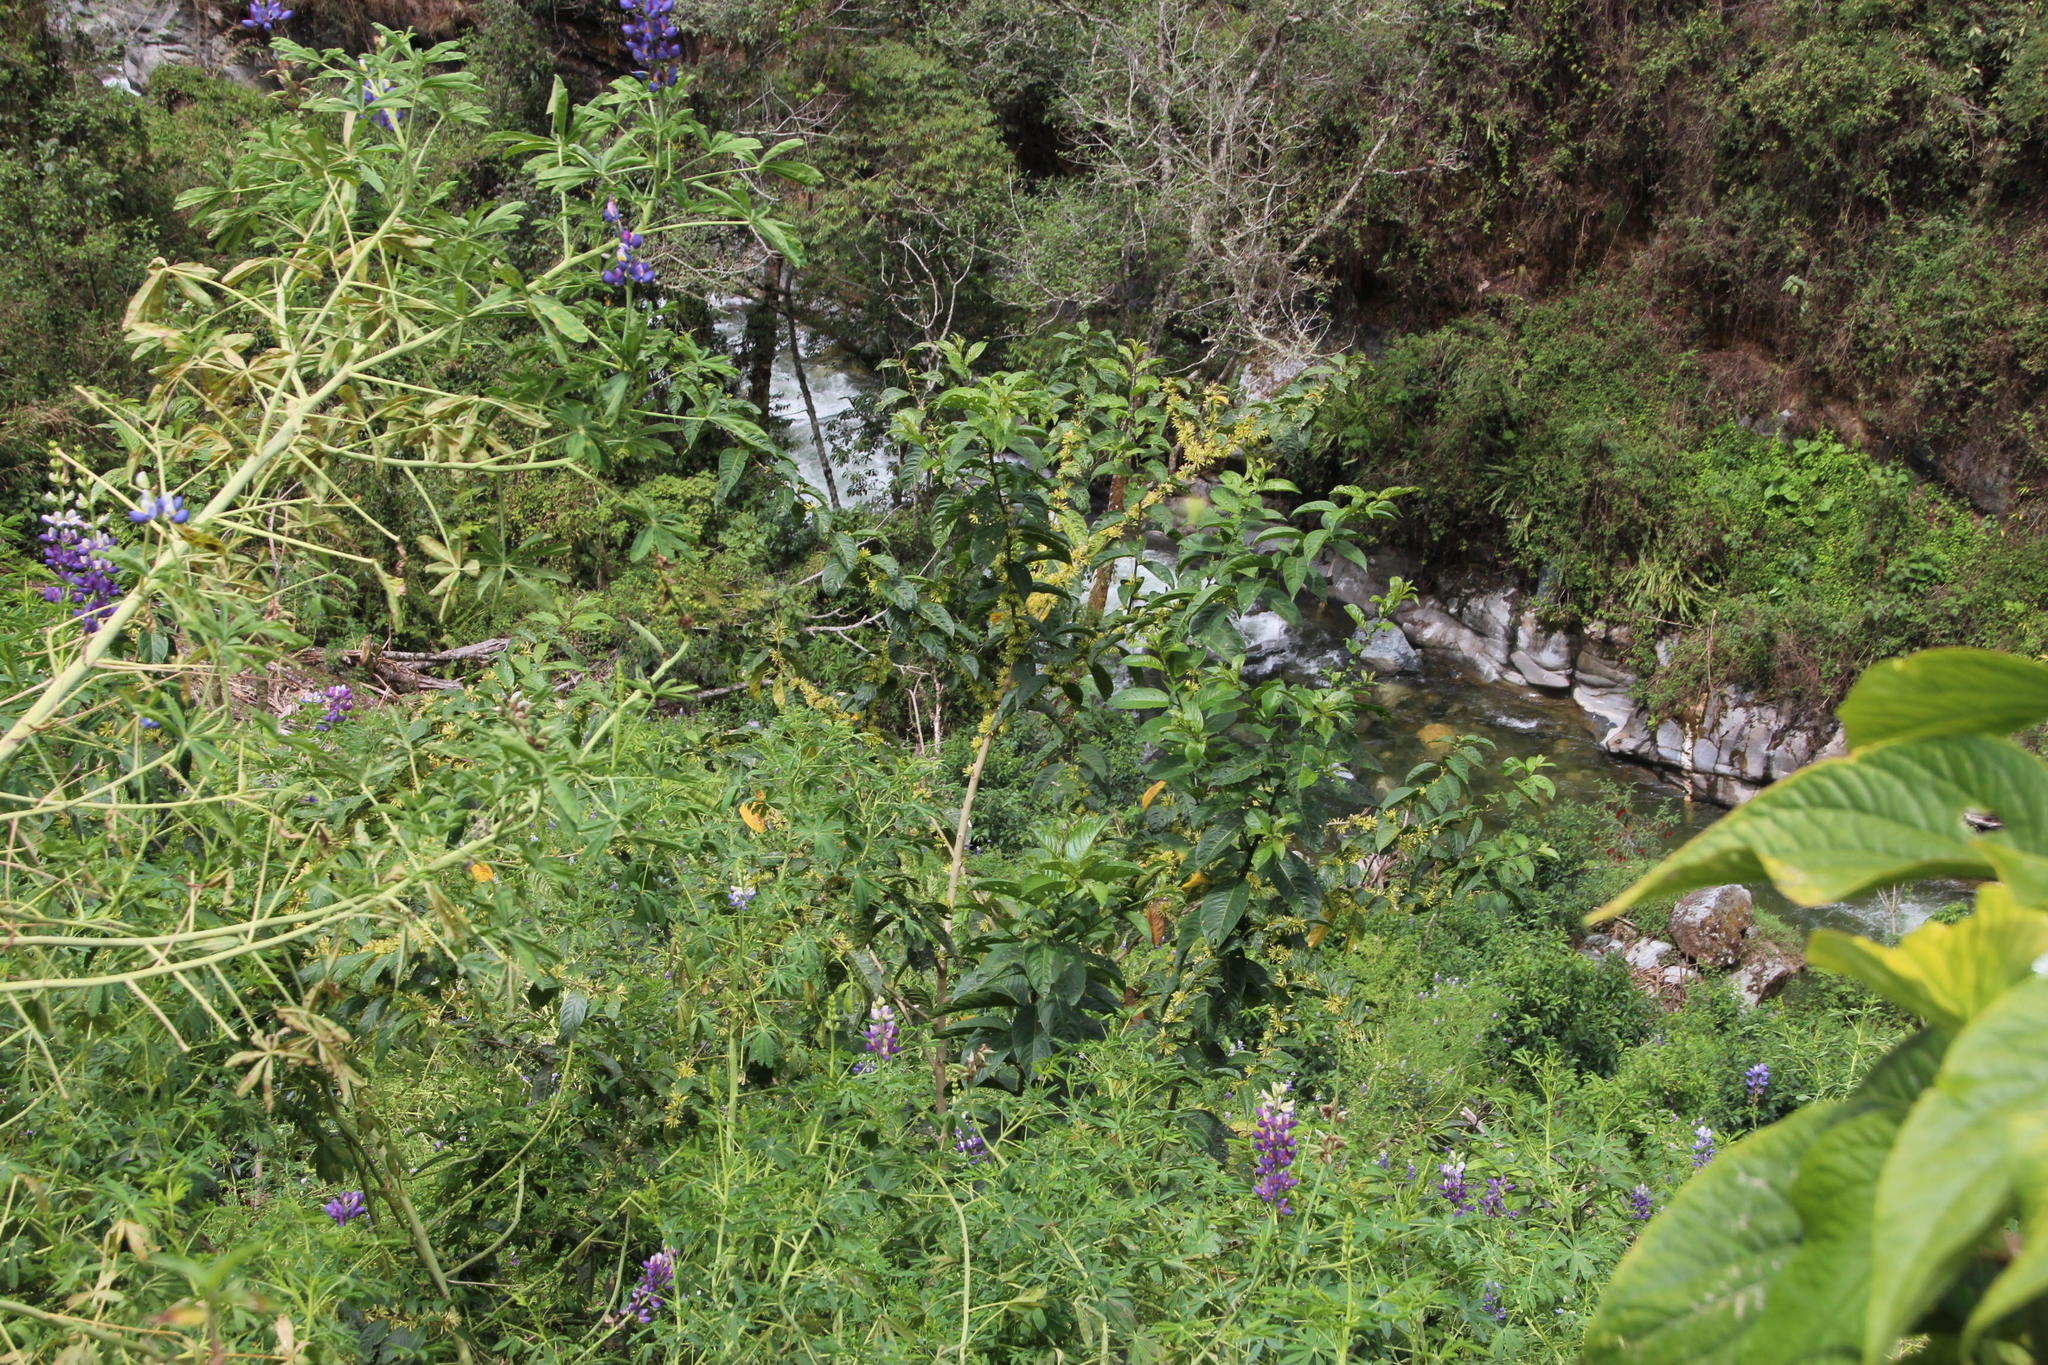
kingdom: Plantae
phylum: Tracheophyta
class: Magnoliopsida
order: Solanales
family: Solanaceae
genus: Cestrum
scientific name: Cestrum conglomeratum
